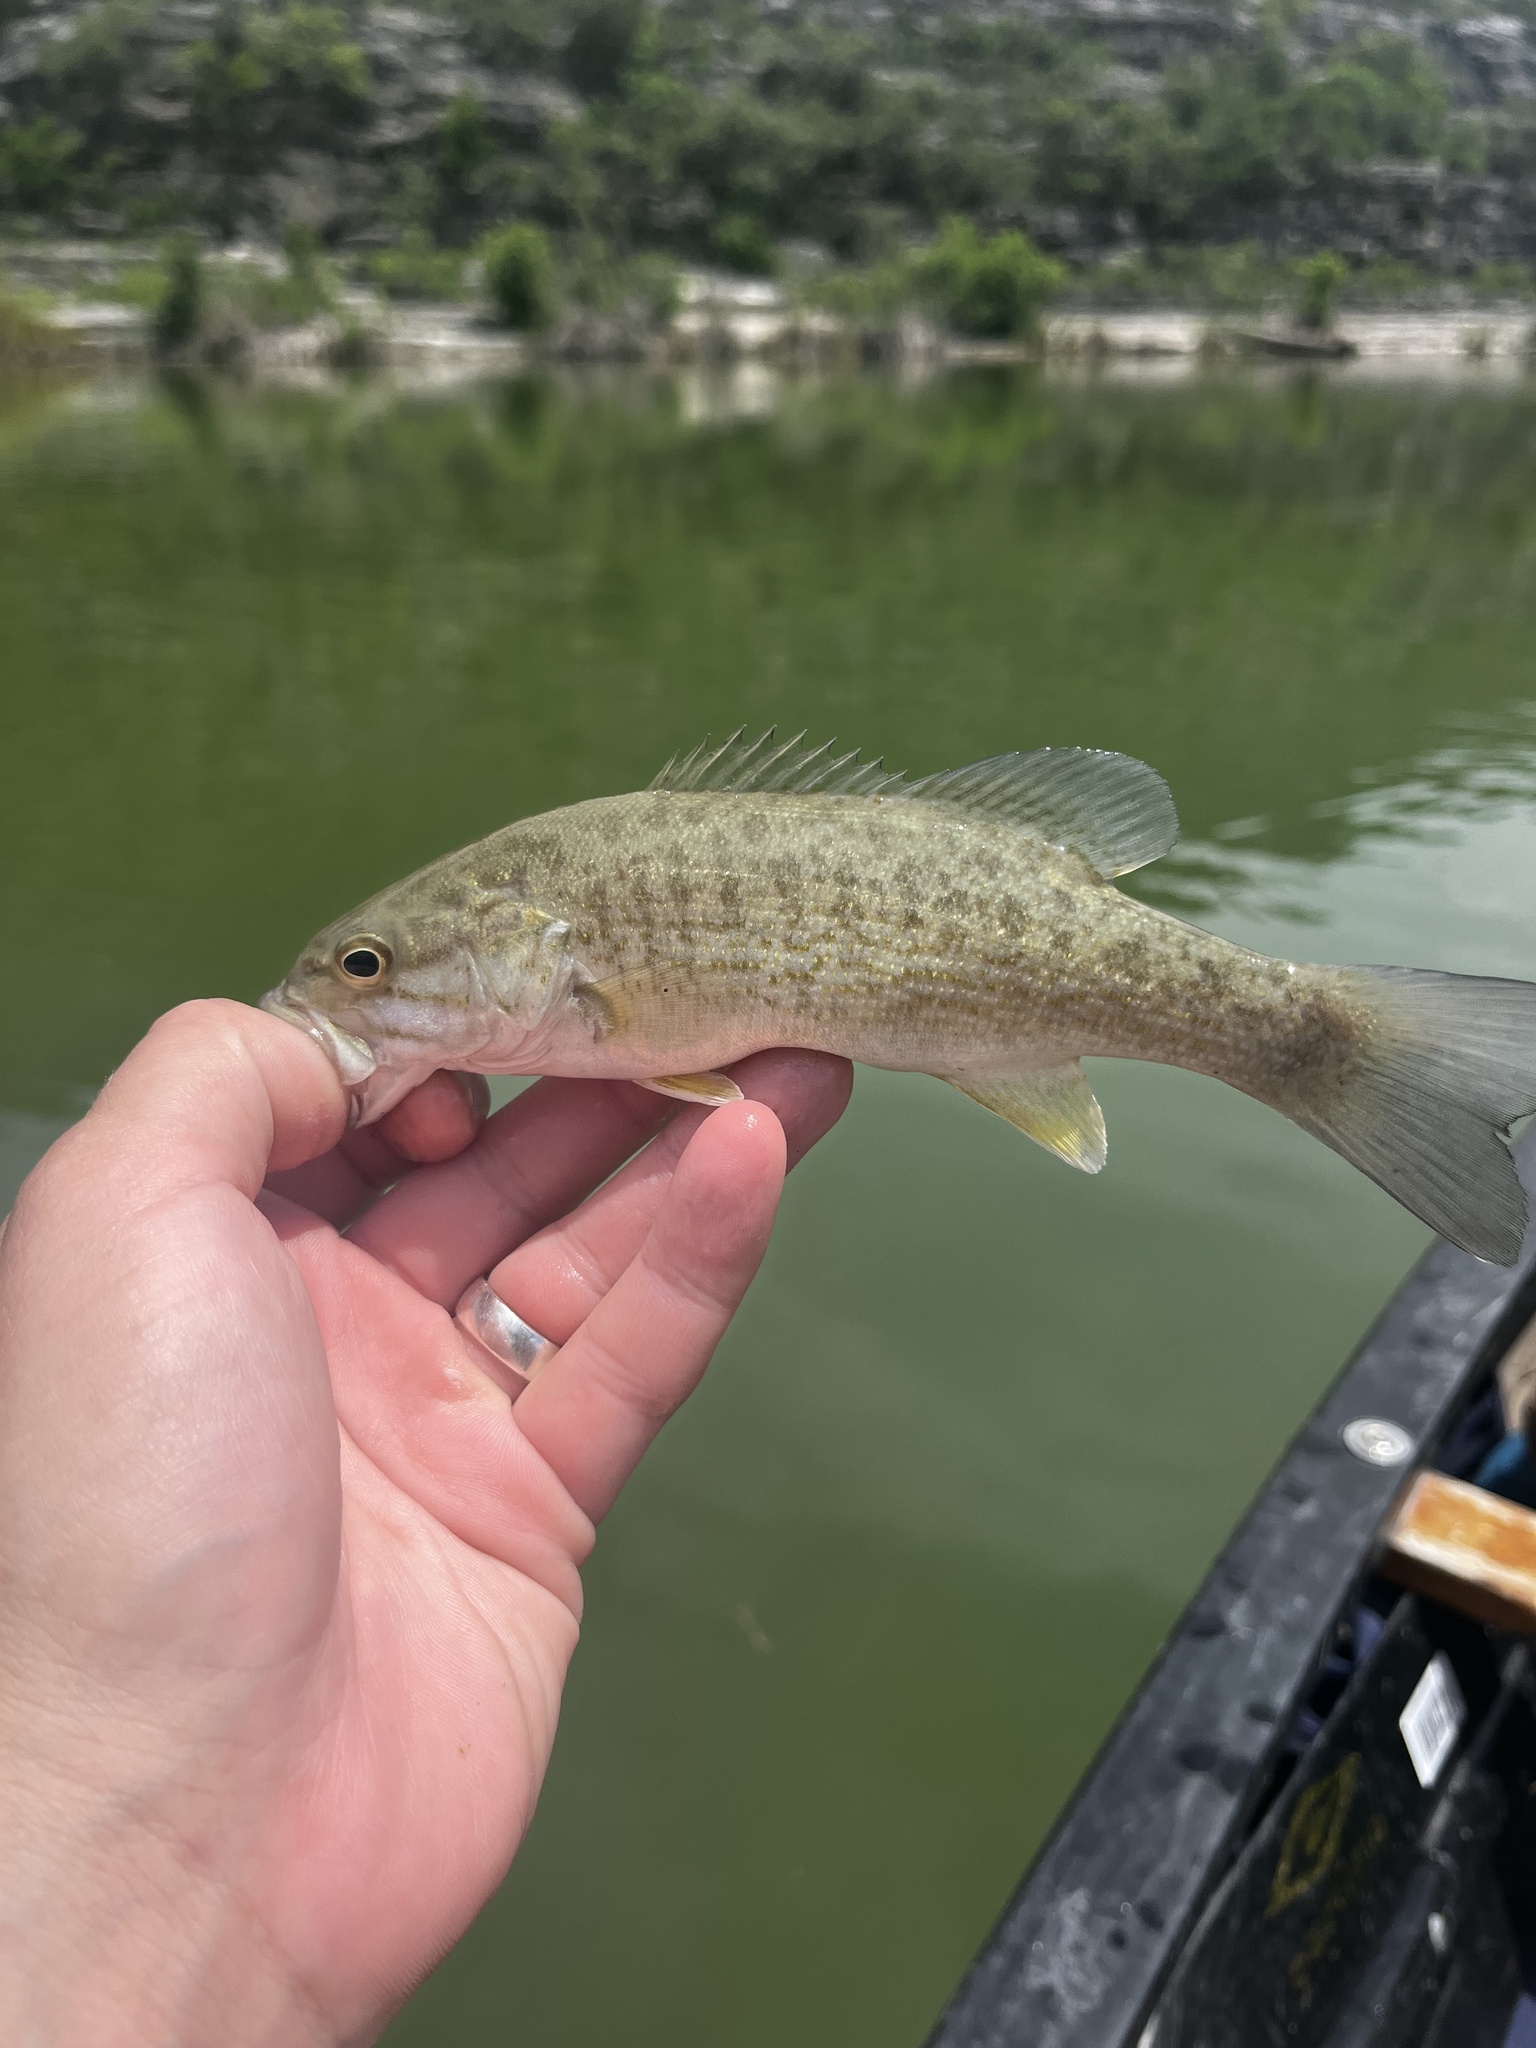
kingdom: Animalia
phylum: Chordata
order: Perciformes
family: Centrarchidae
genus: Micropterus
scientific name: Micropterus dolomieu
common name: Smallmouth bass
